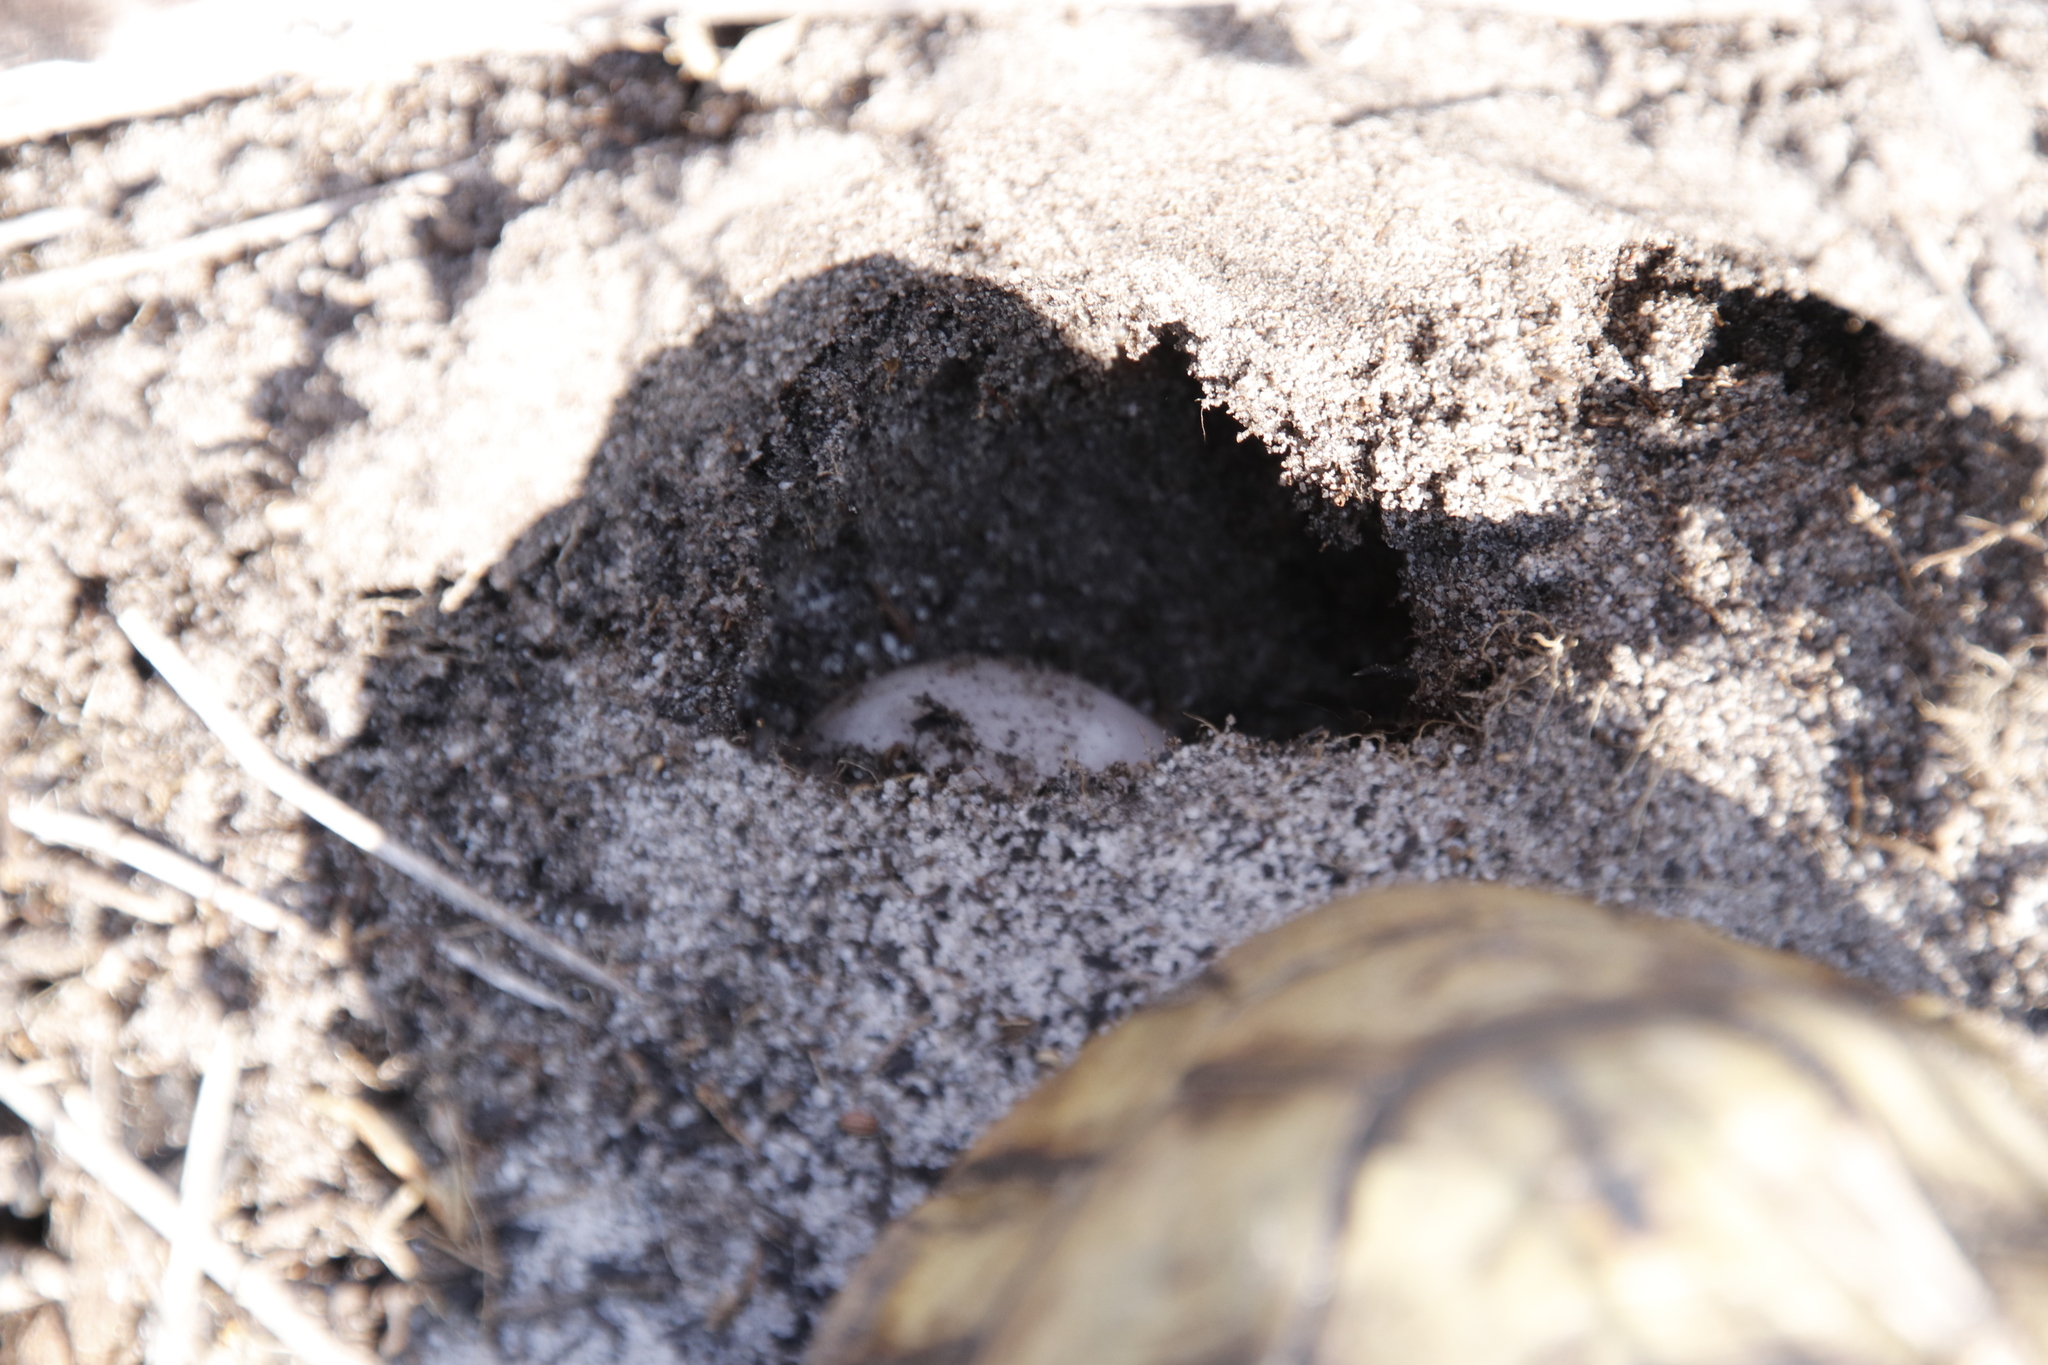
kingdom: Animalia
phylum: Chordata
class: Testudines
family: Testudinidae
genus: Chersina
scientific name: Chersina angulata
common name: South african bowsprit tortoise
